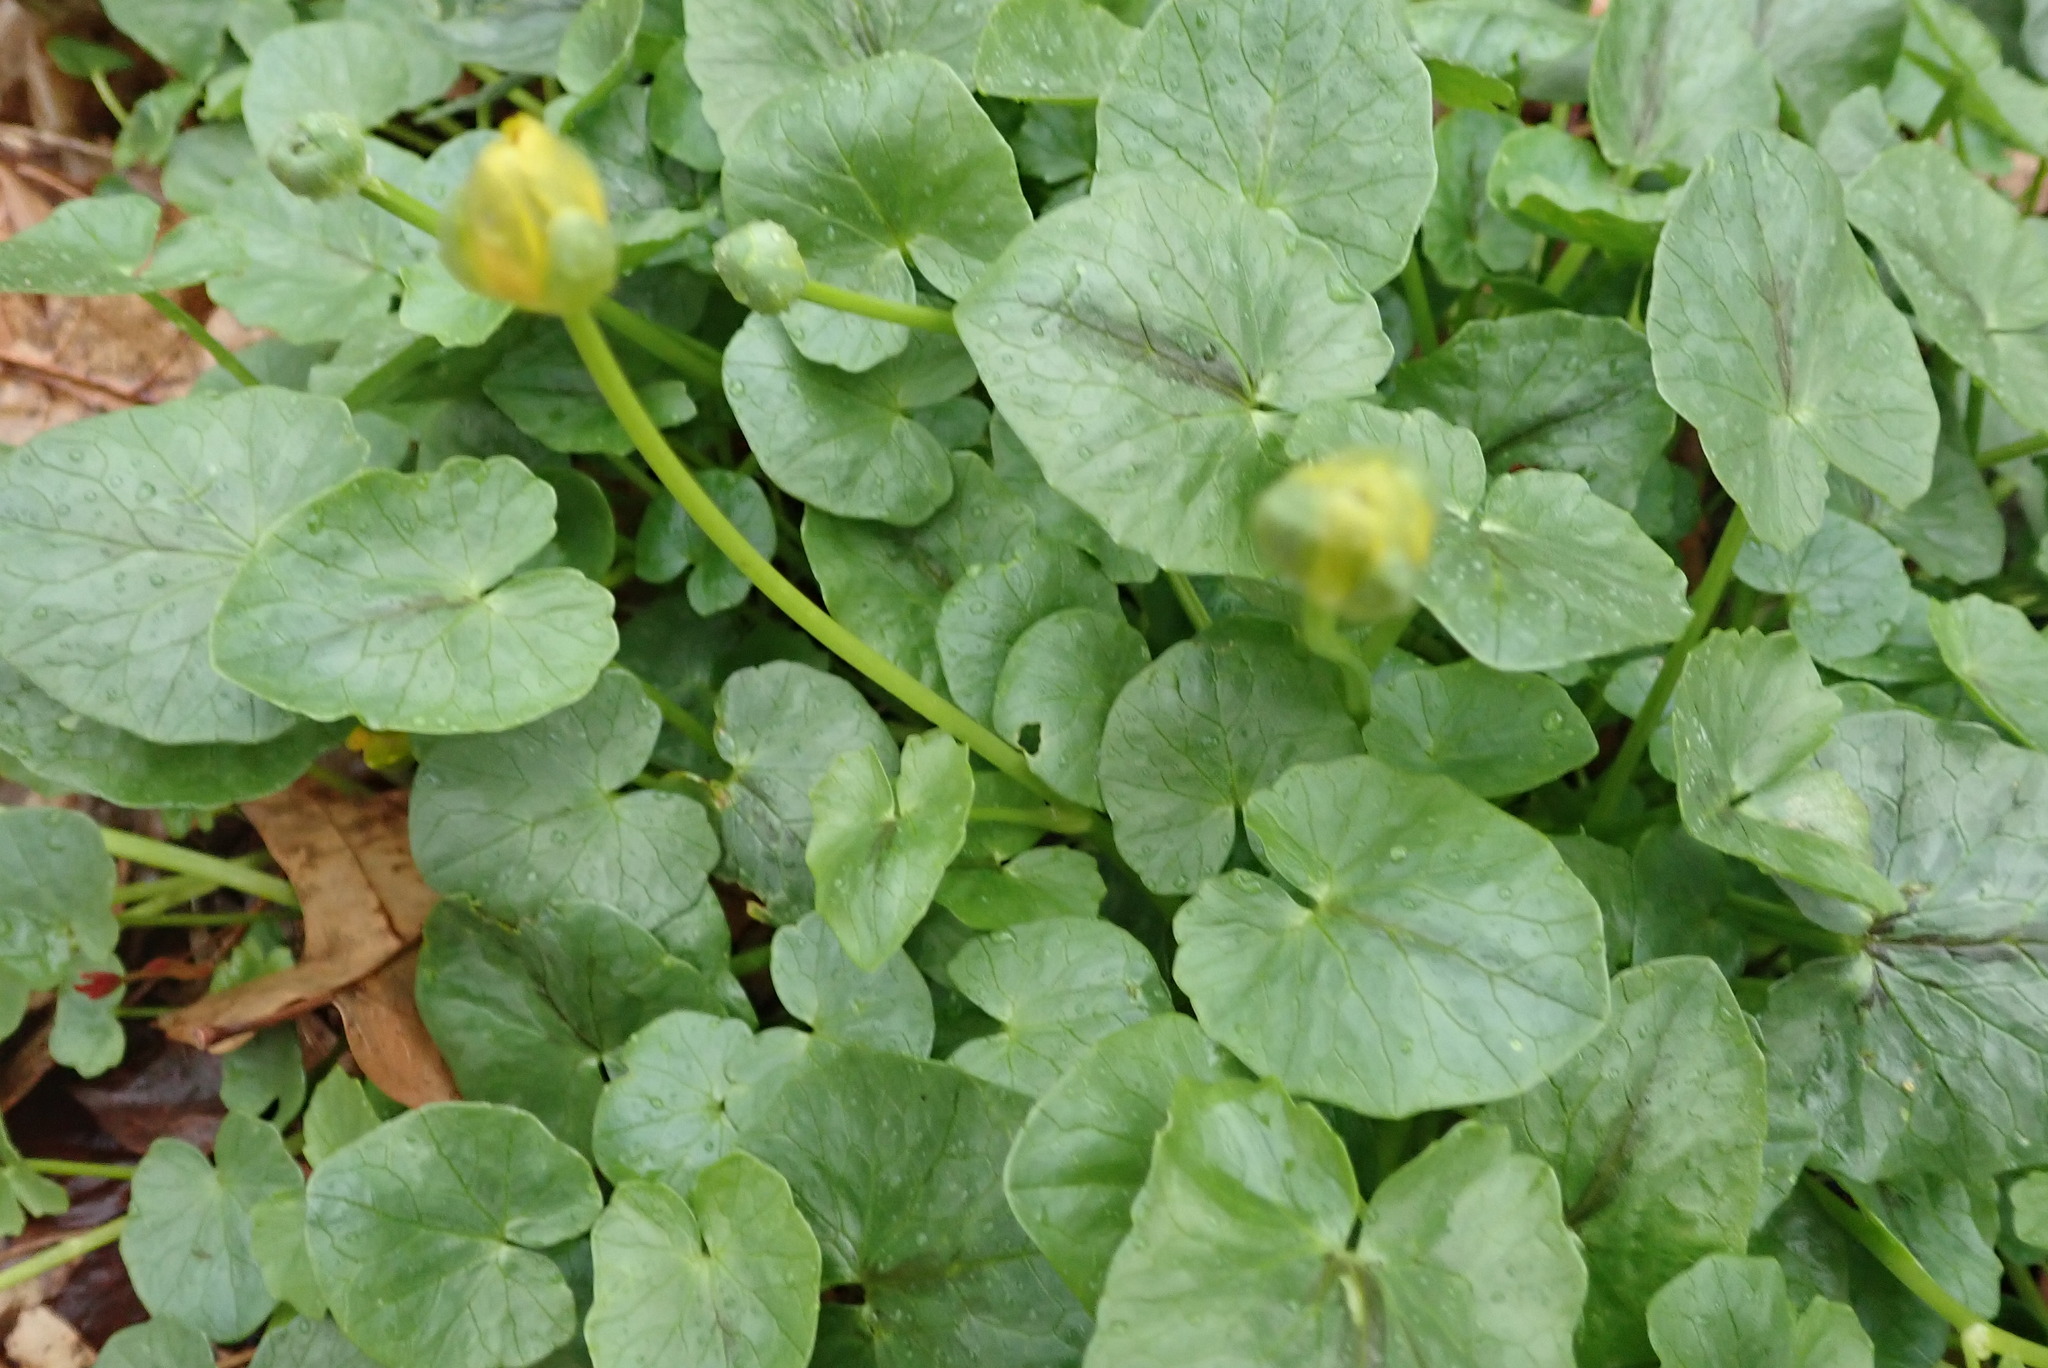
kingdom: Plantae
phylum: Tracheophyta
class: Magnoliopsida
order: Ranunculales
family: Ranunculaceae
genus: Ficaria
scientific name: Ficaria verna
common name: Lesser celandine
